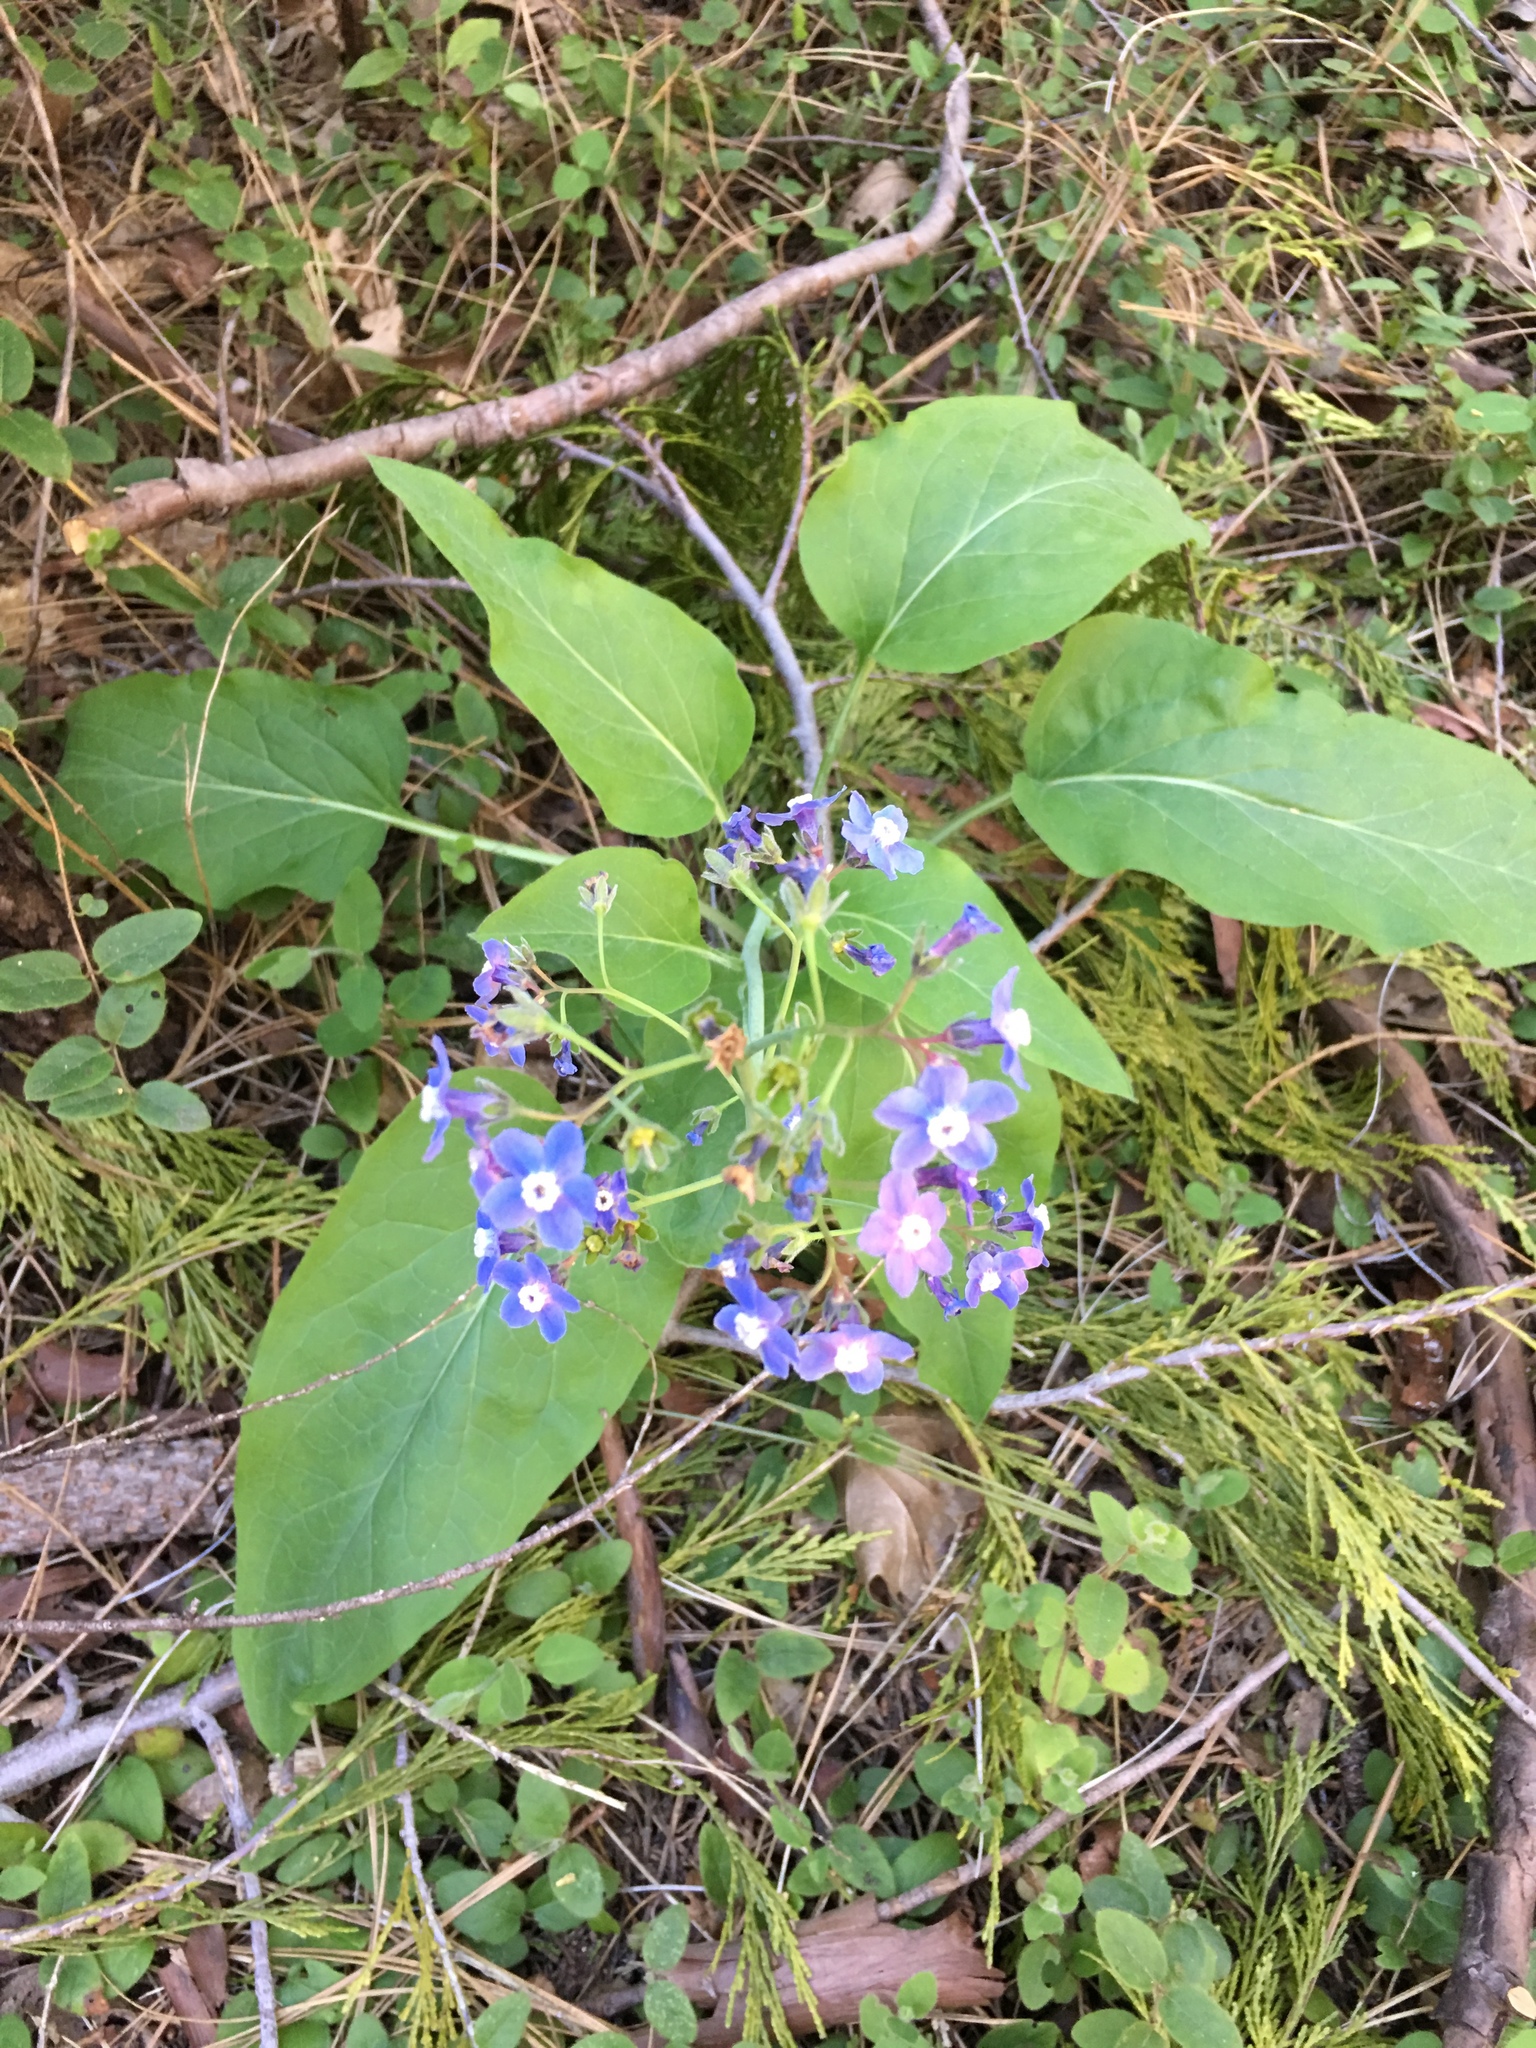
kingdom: Plantae
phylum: Tracheophyta
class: Magnoliopsida
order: Boraginales
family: Boraginaceae
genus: Adelinia
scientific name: Adelinia grande
